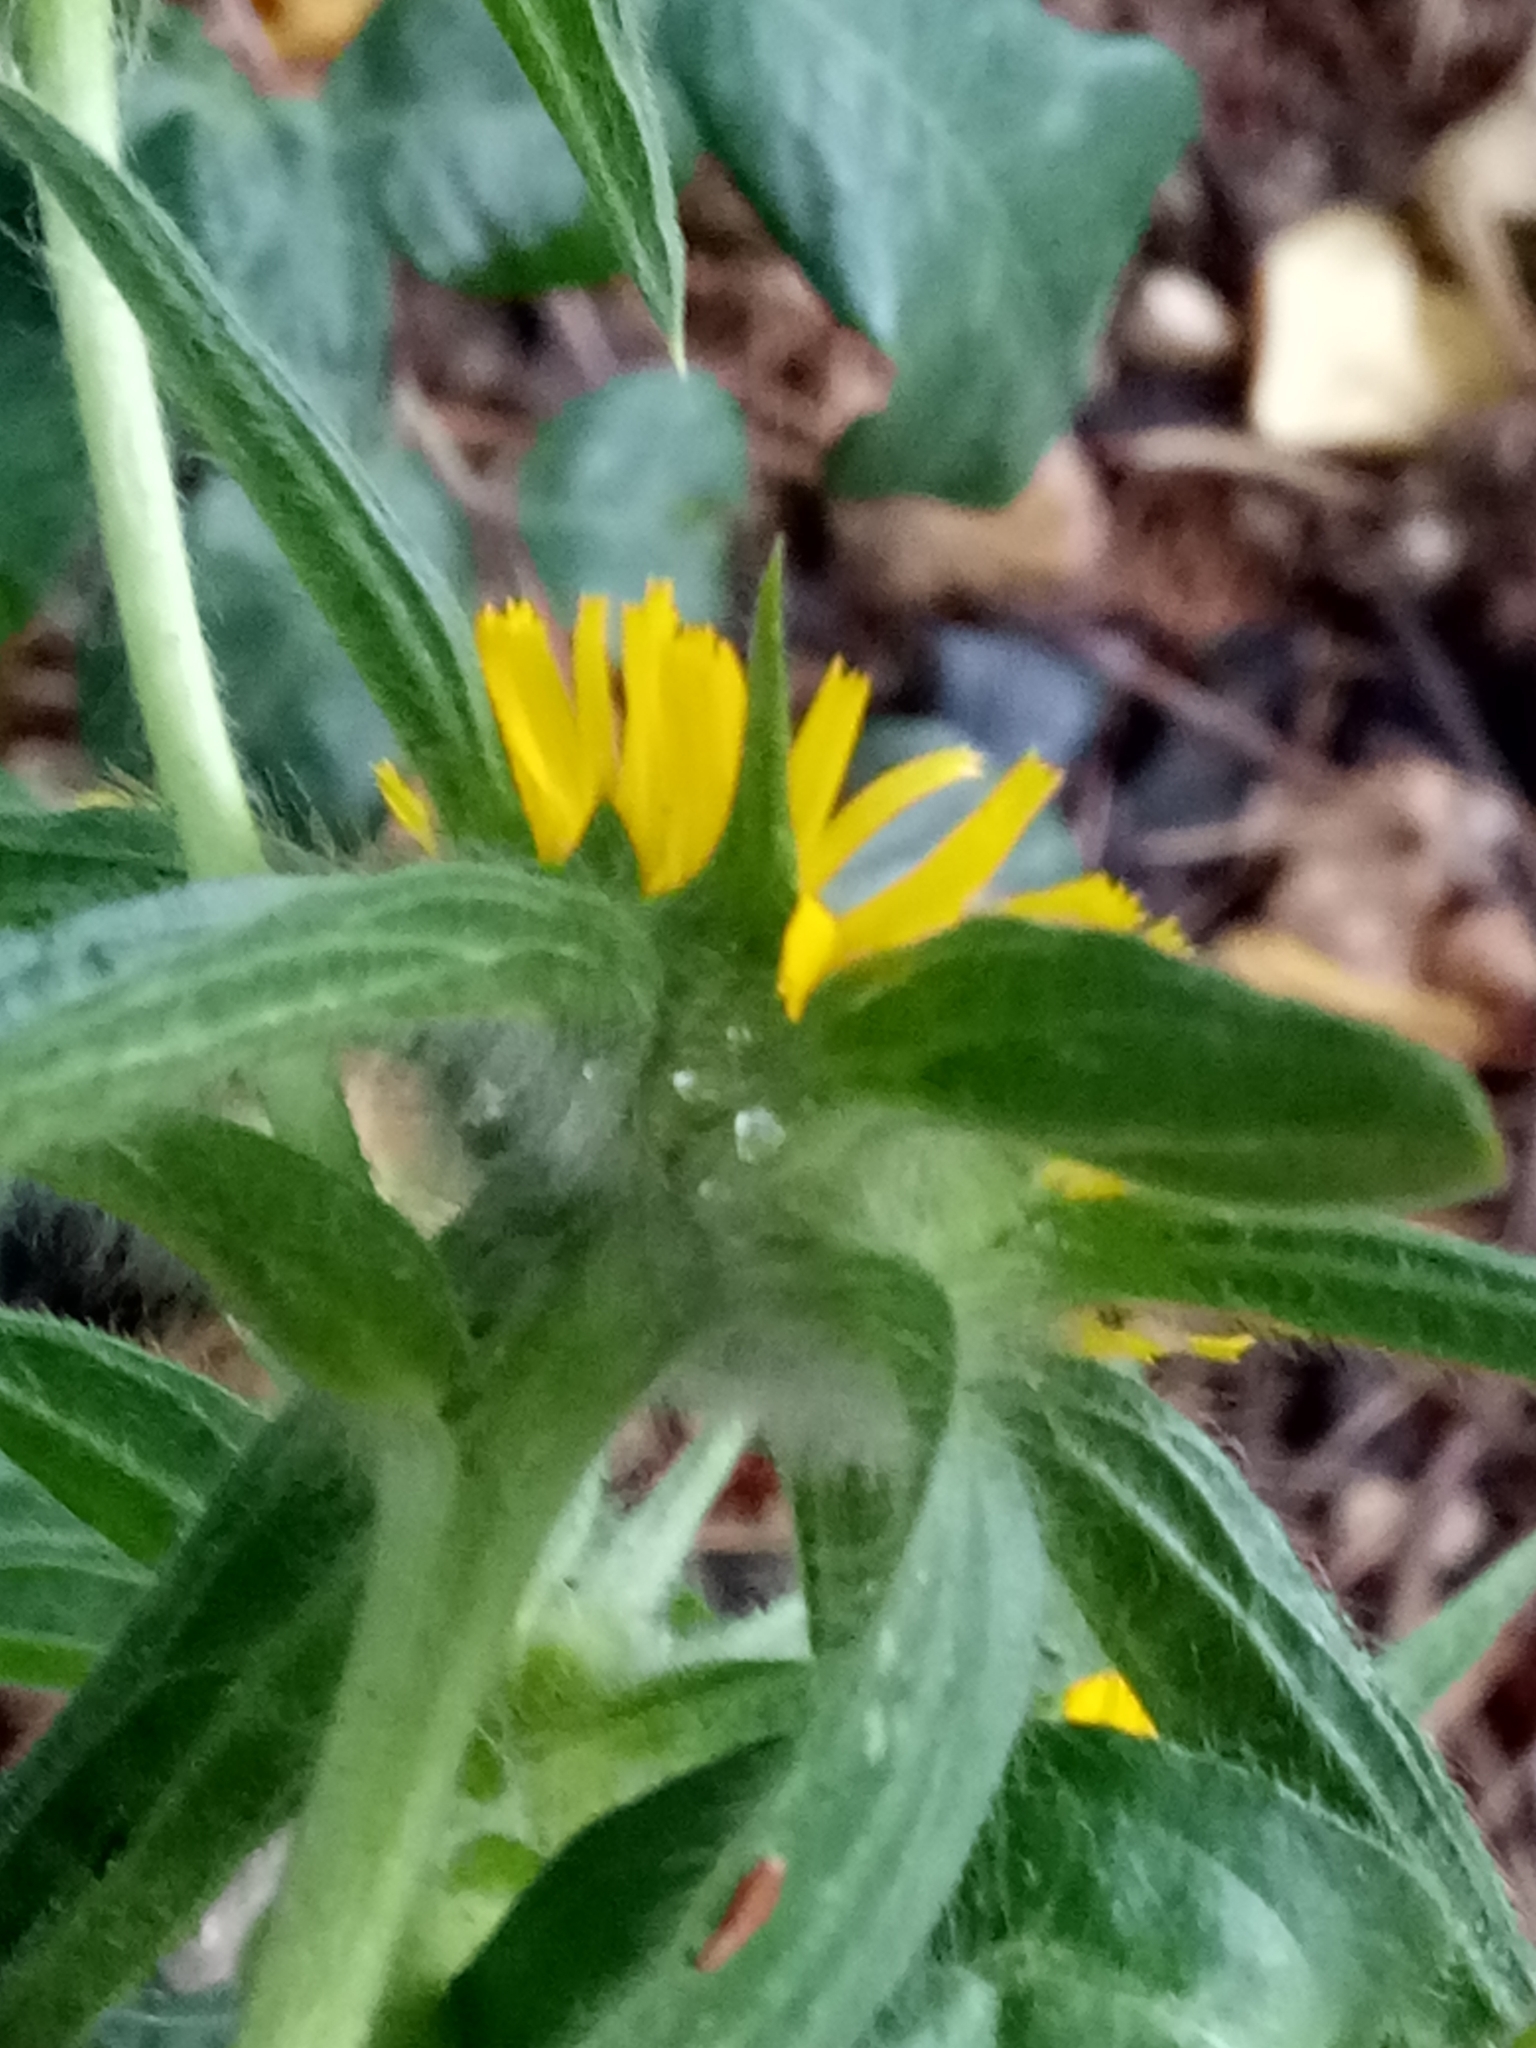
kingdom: Plantae
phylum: Tracheophyta
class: Magnoliopsida
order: Asterales
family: Asteraceae
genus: Pallenis
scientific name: Pallenis spinosa
